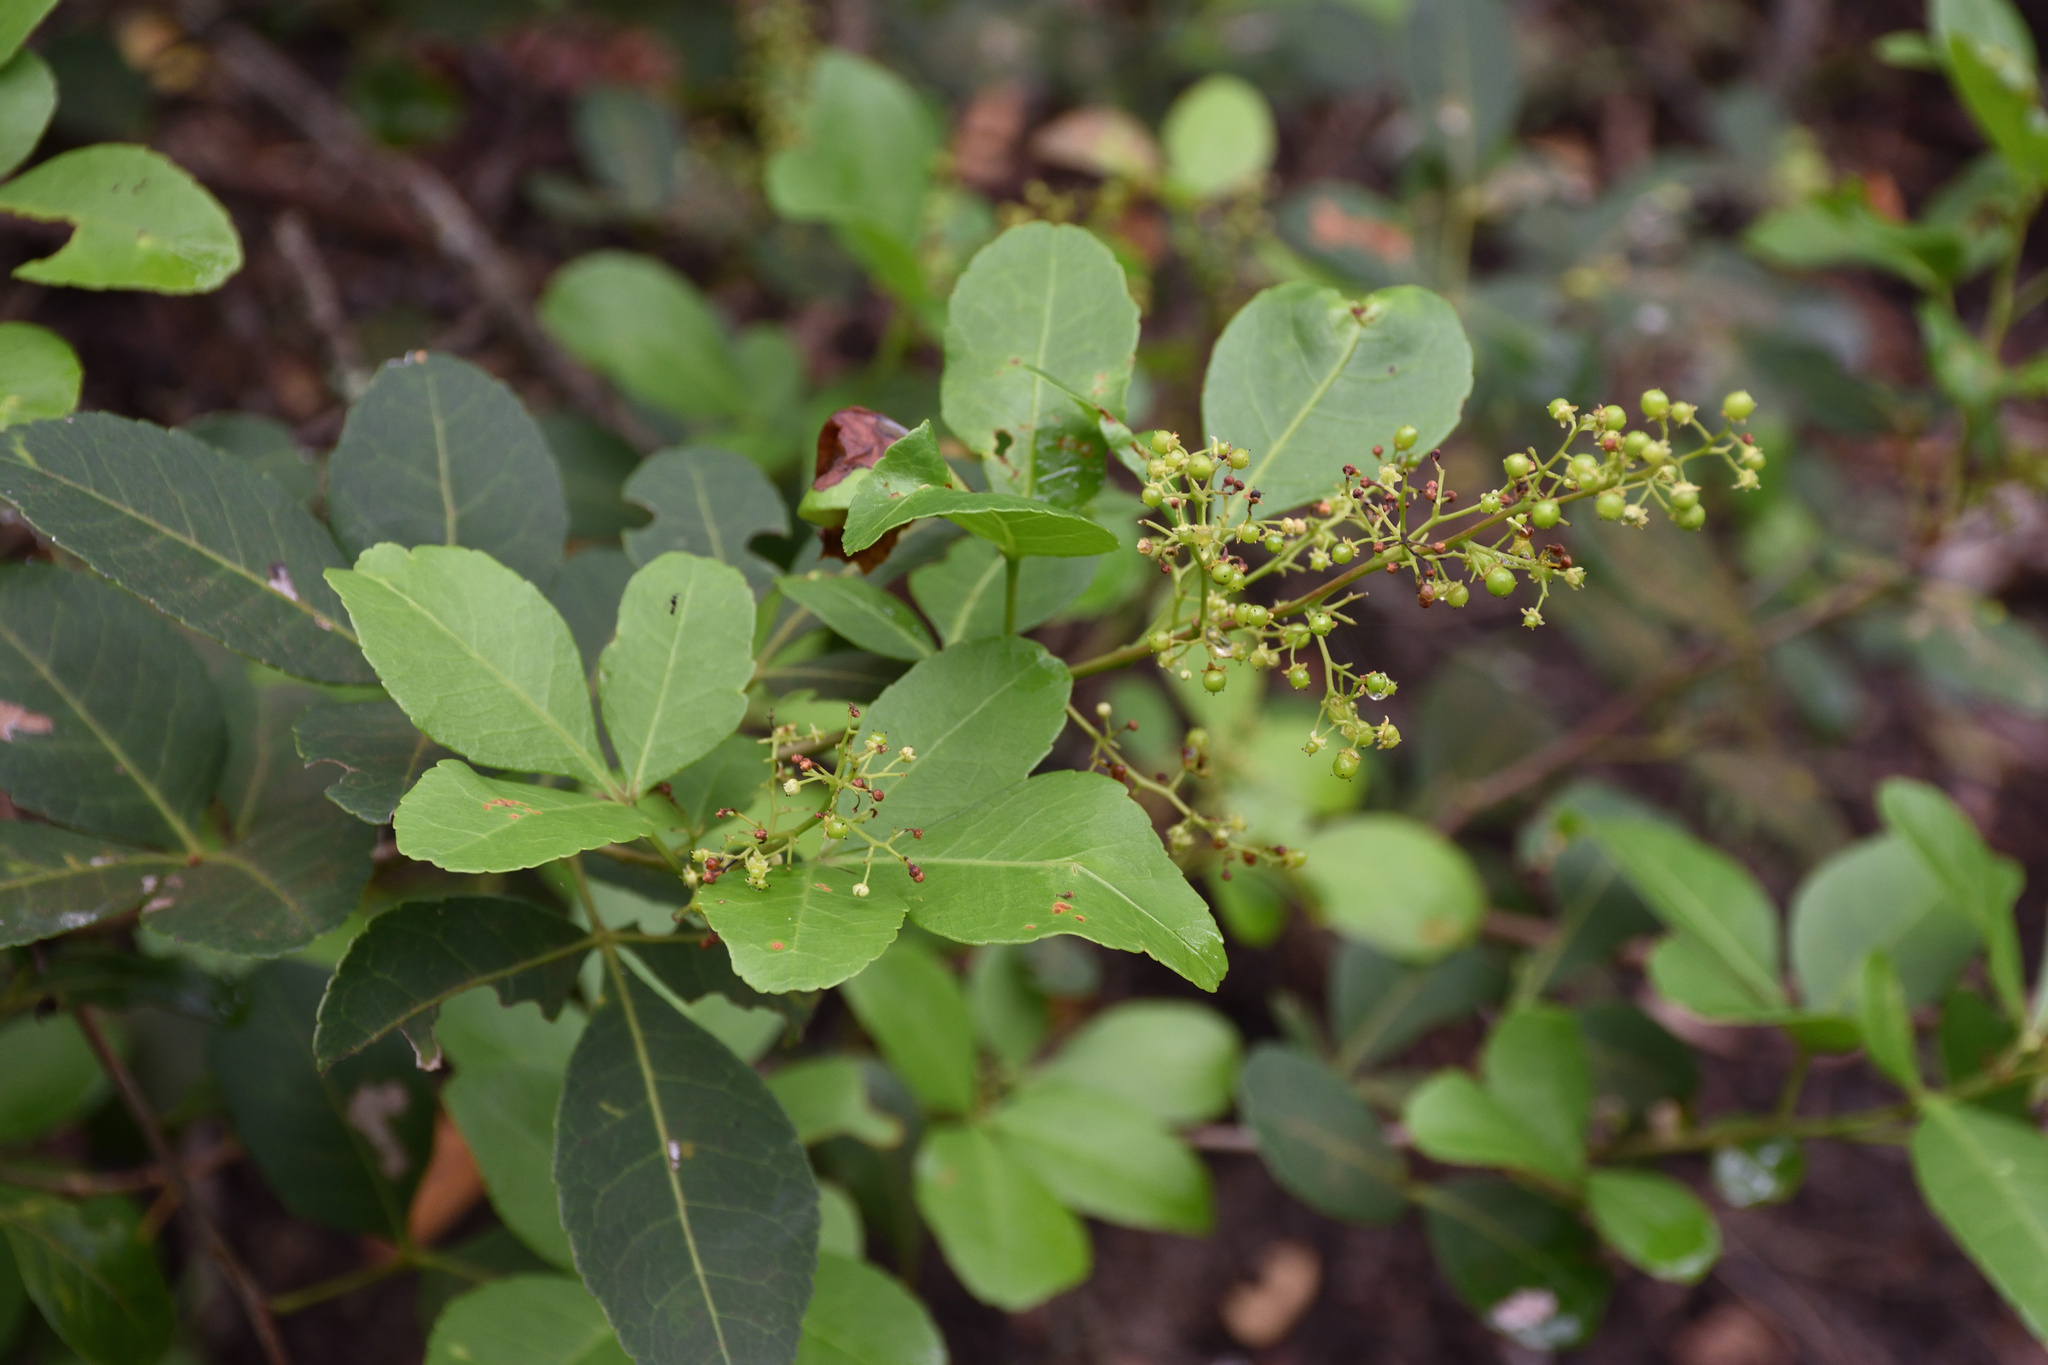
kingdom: Plantae
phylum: Tracheophyta
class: Magnoliopsida
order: Sapindales
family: Anacardiaceae
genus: Searsia
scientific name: Searsia natalensis
